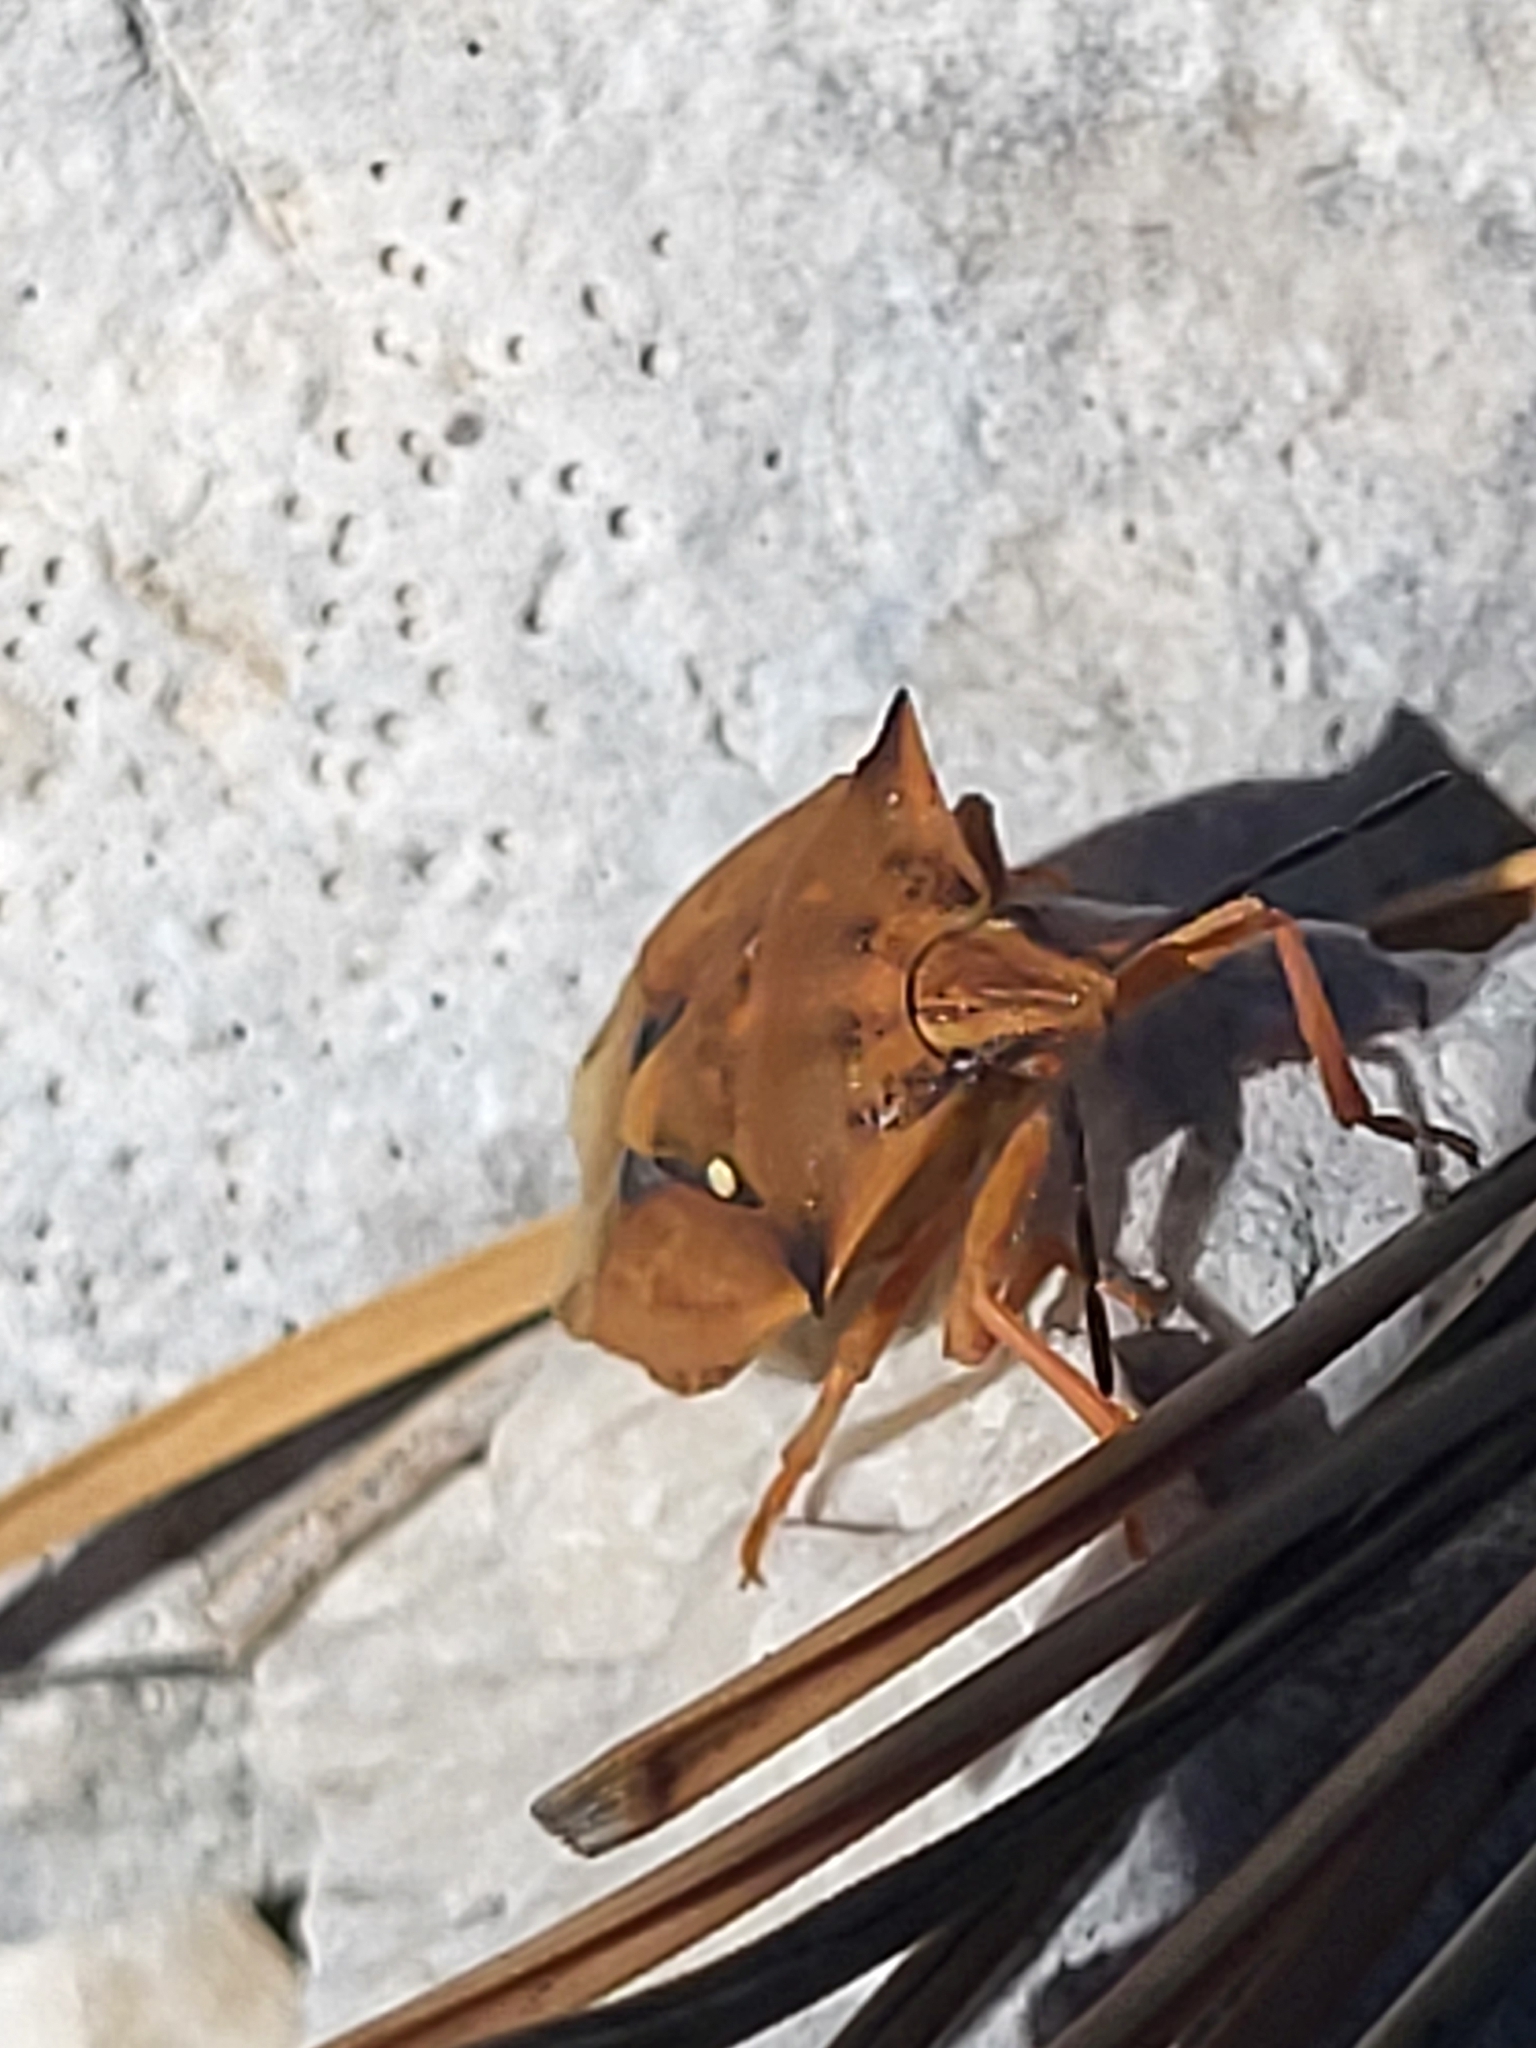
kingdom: Animalia
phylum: Arthropoda
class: Insecta
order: Hemiptera
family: Pentatomidae
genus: Carpocoris
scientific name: Carpocoris fuscispinus
